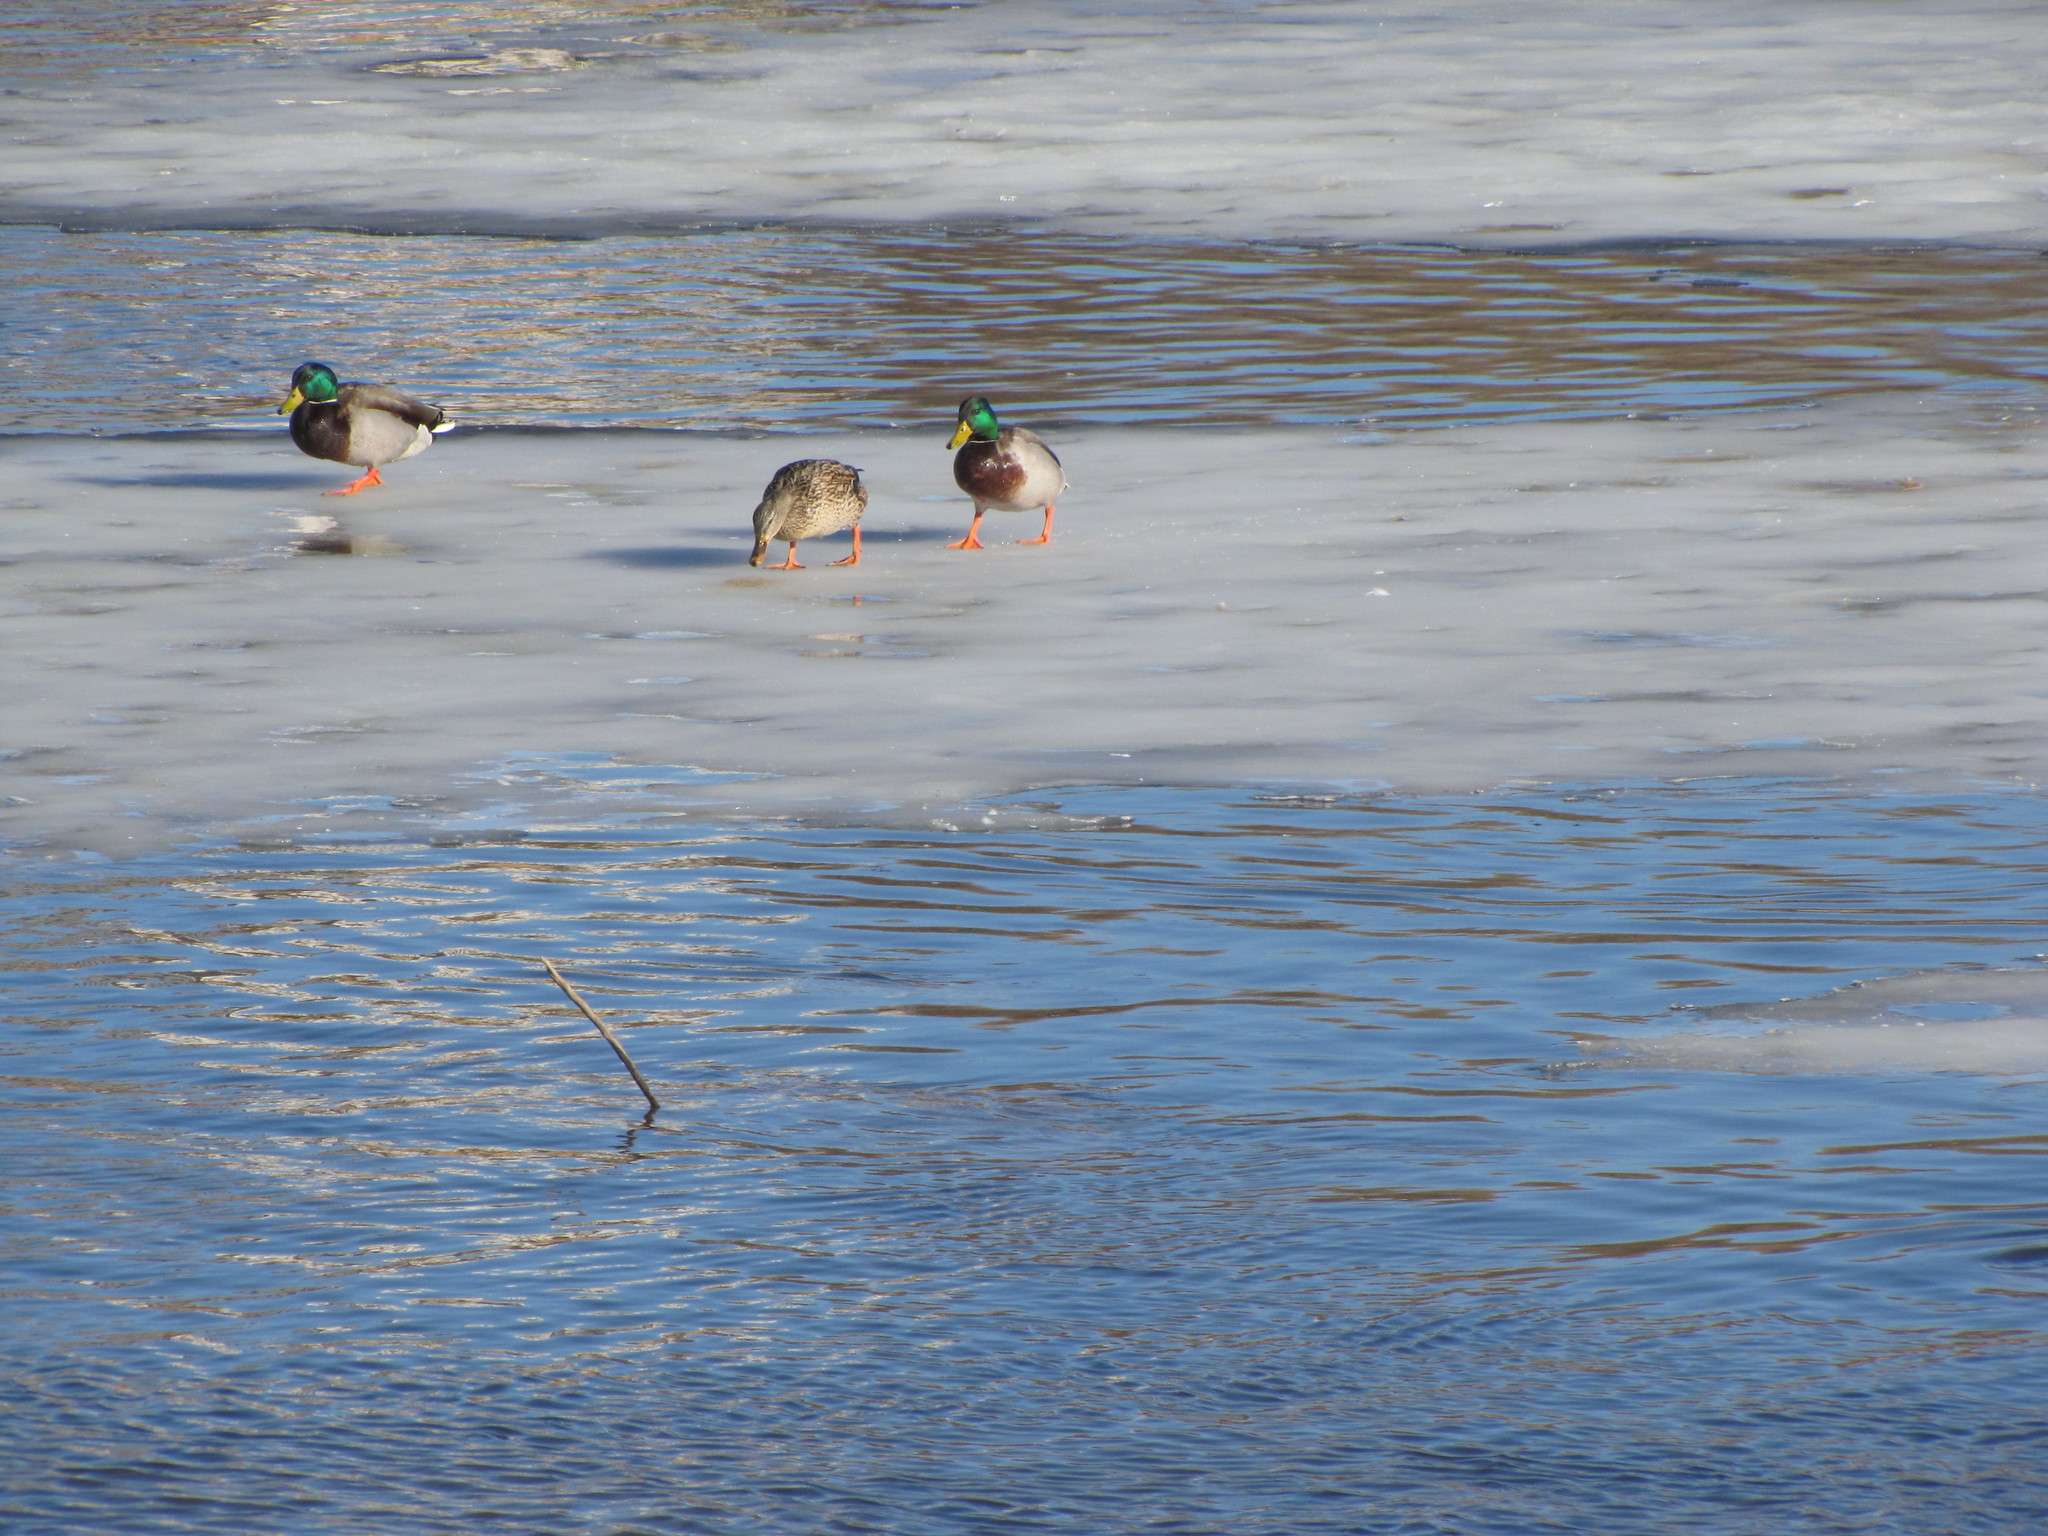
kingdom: Animalia
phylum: Chordata
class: Aves
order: Anseriformes
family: Anatidae
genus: Anas
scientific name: Anas platyrhynchos
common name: Mallard
